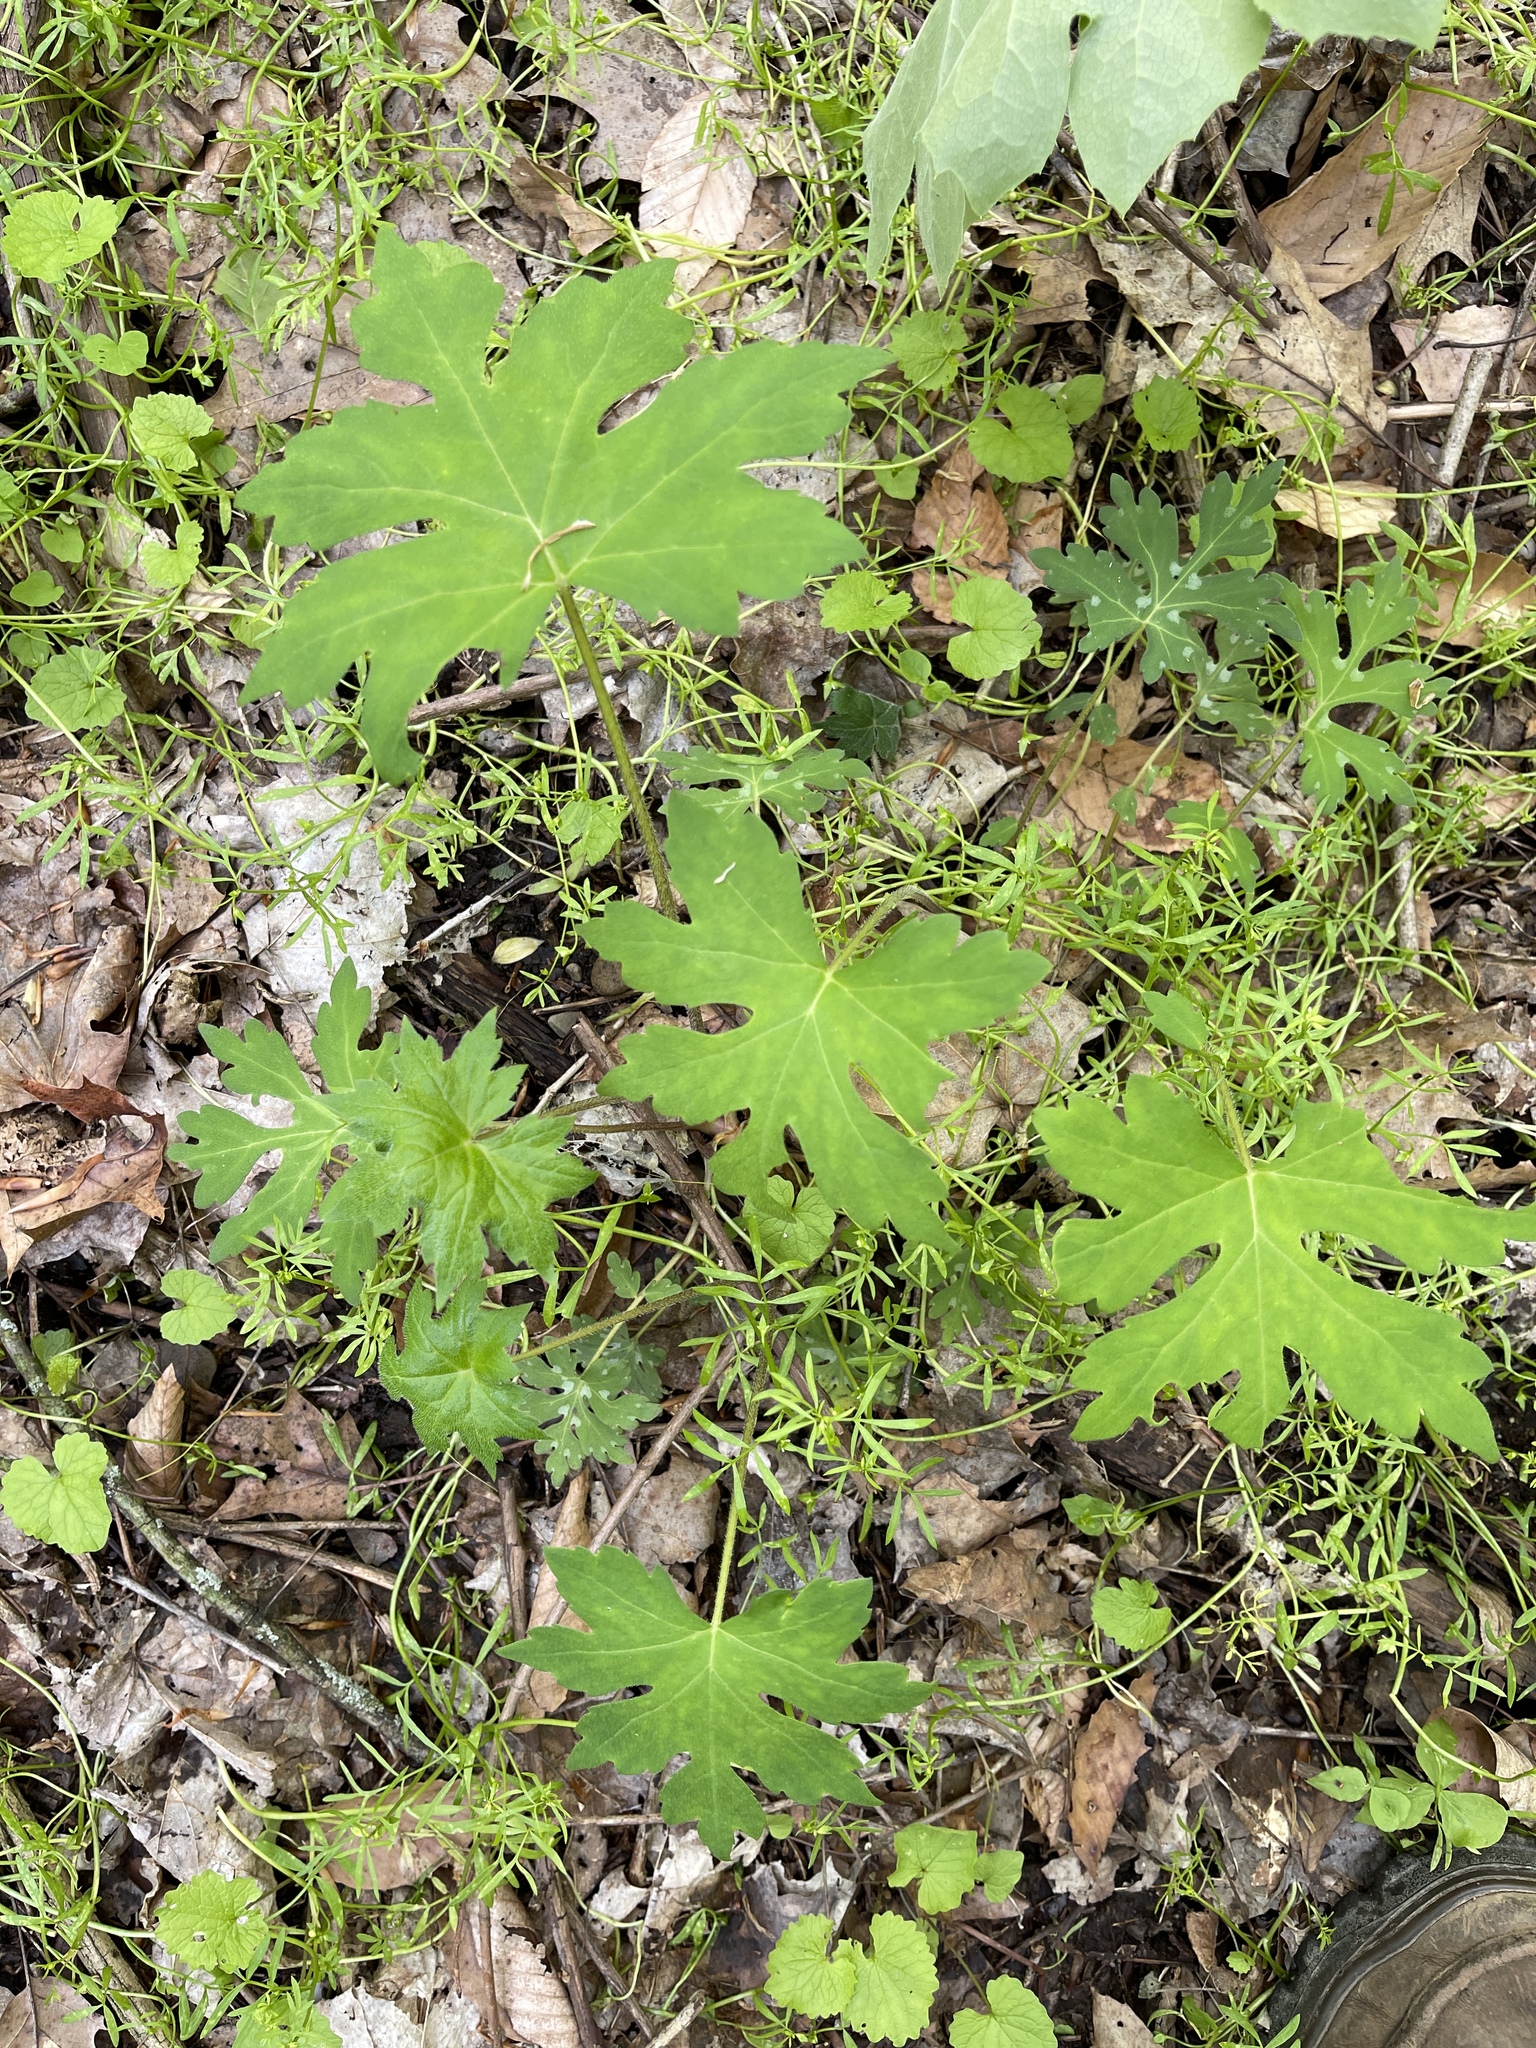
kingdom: Plantae
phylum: Tracheophyta
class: Magnoliopsida
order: Boraginales
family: Hydrophyllaceae
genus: Hydrophyllum
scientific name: Hydrophyllum canadense
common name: Canada waterleaf
